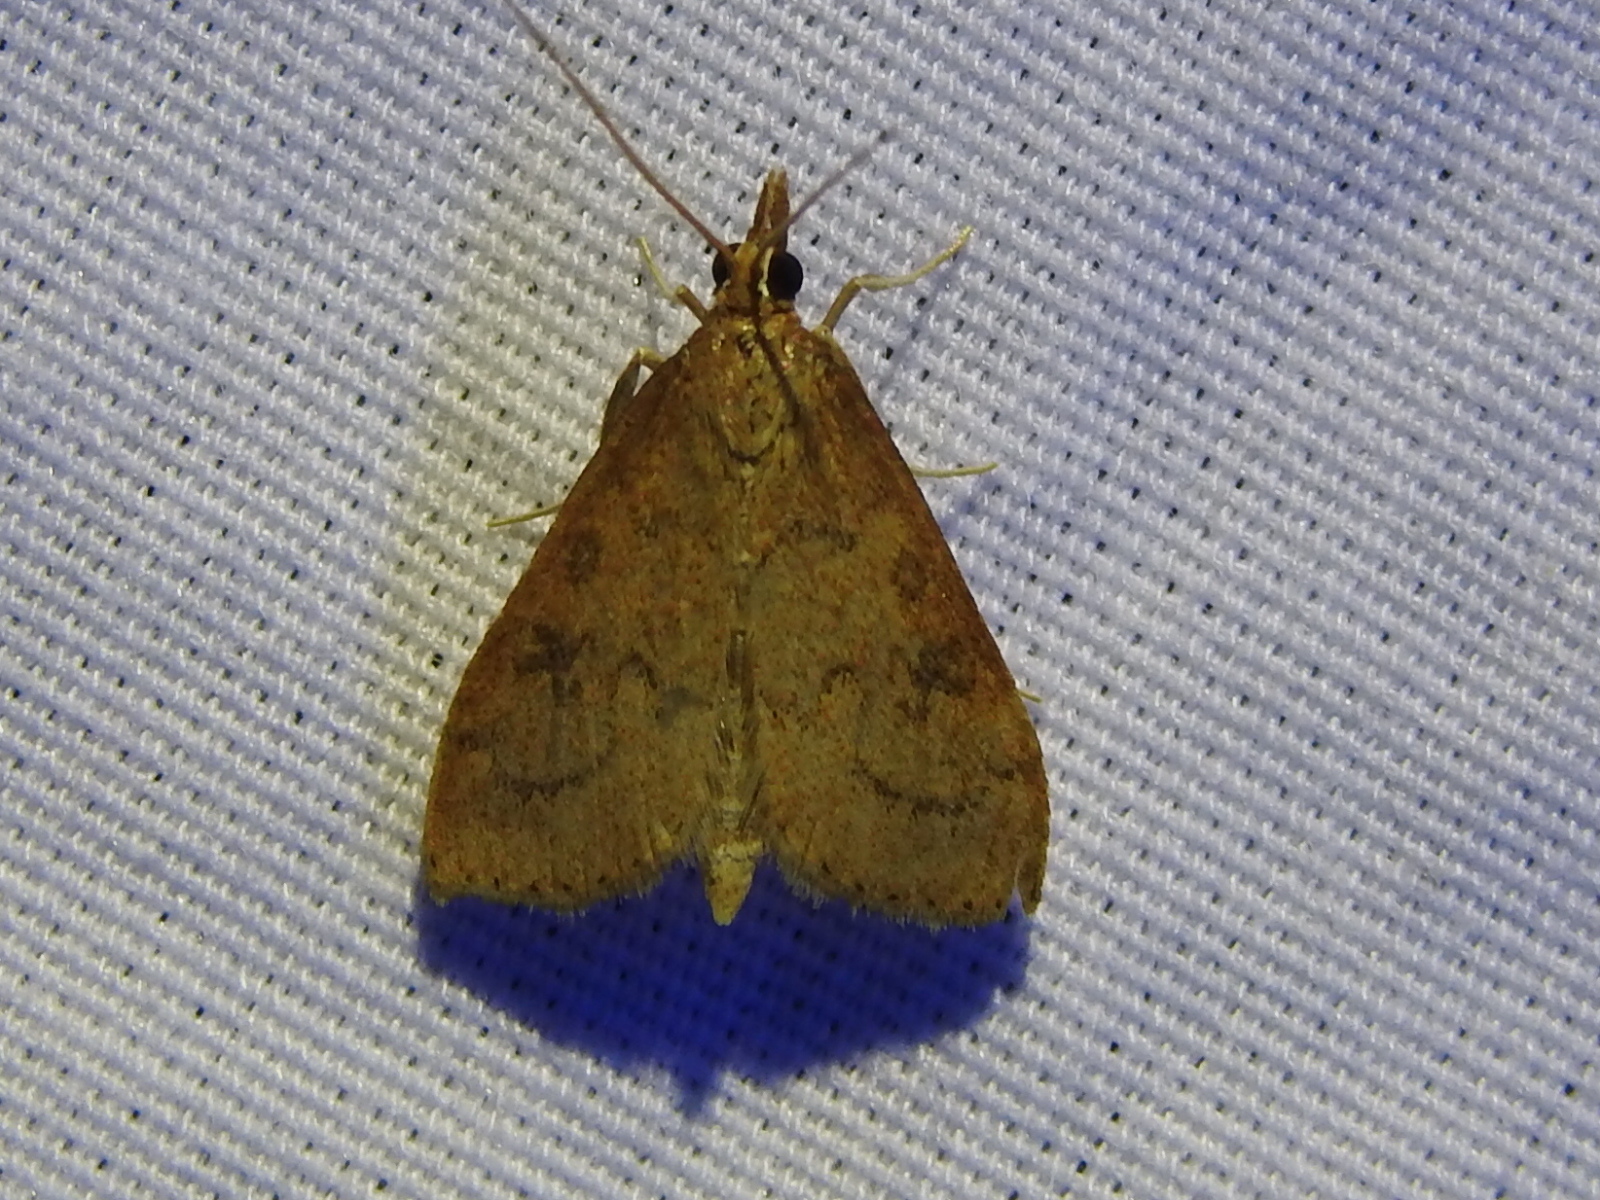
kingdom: Animalia
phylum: Arthropoda
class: Insecta
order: Lepidoptera
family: Crambidae
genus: Udea
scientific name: Udea rubigalis
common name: Celery leaftier moth
